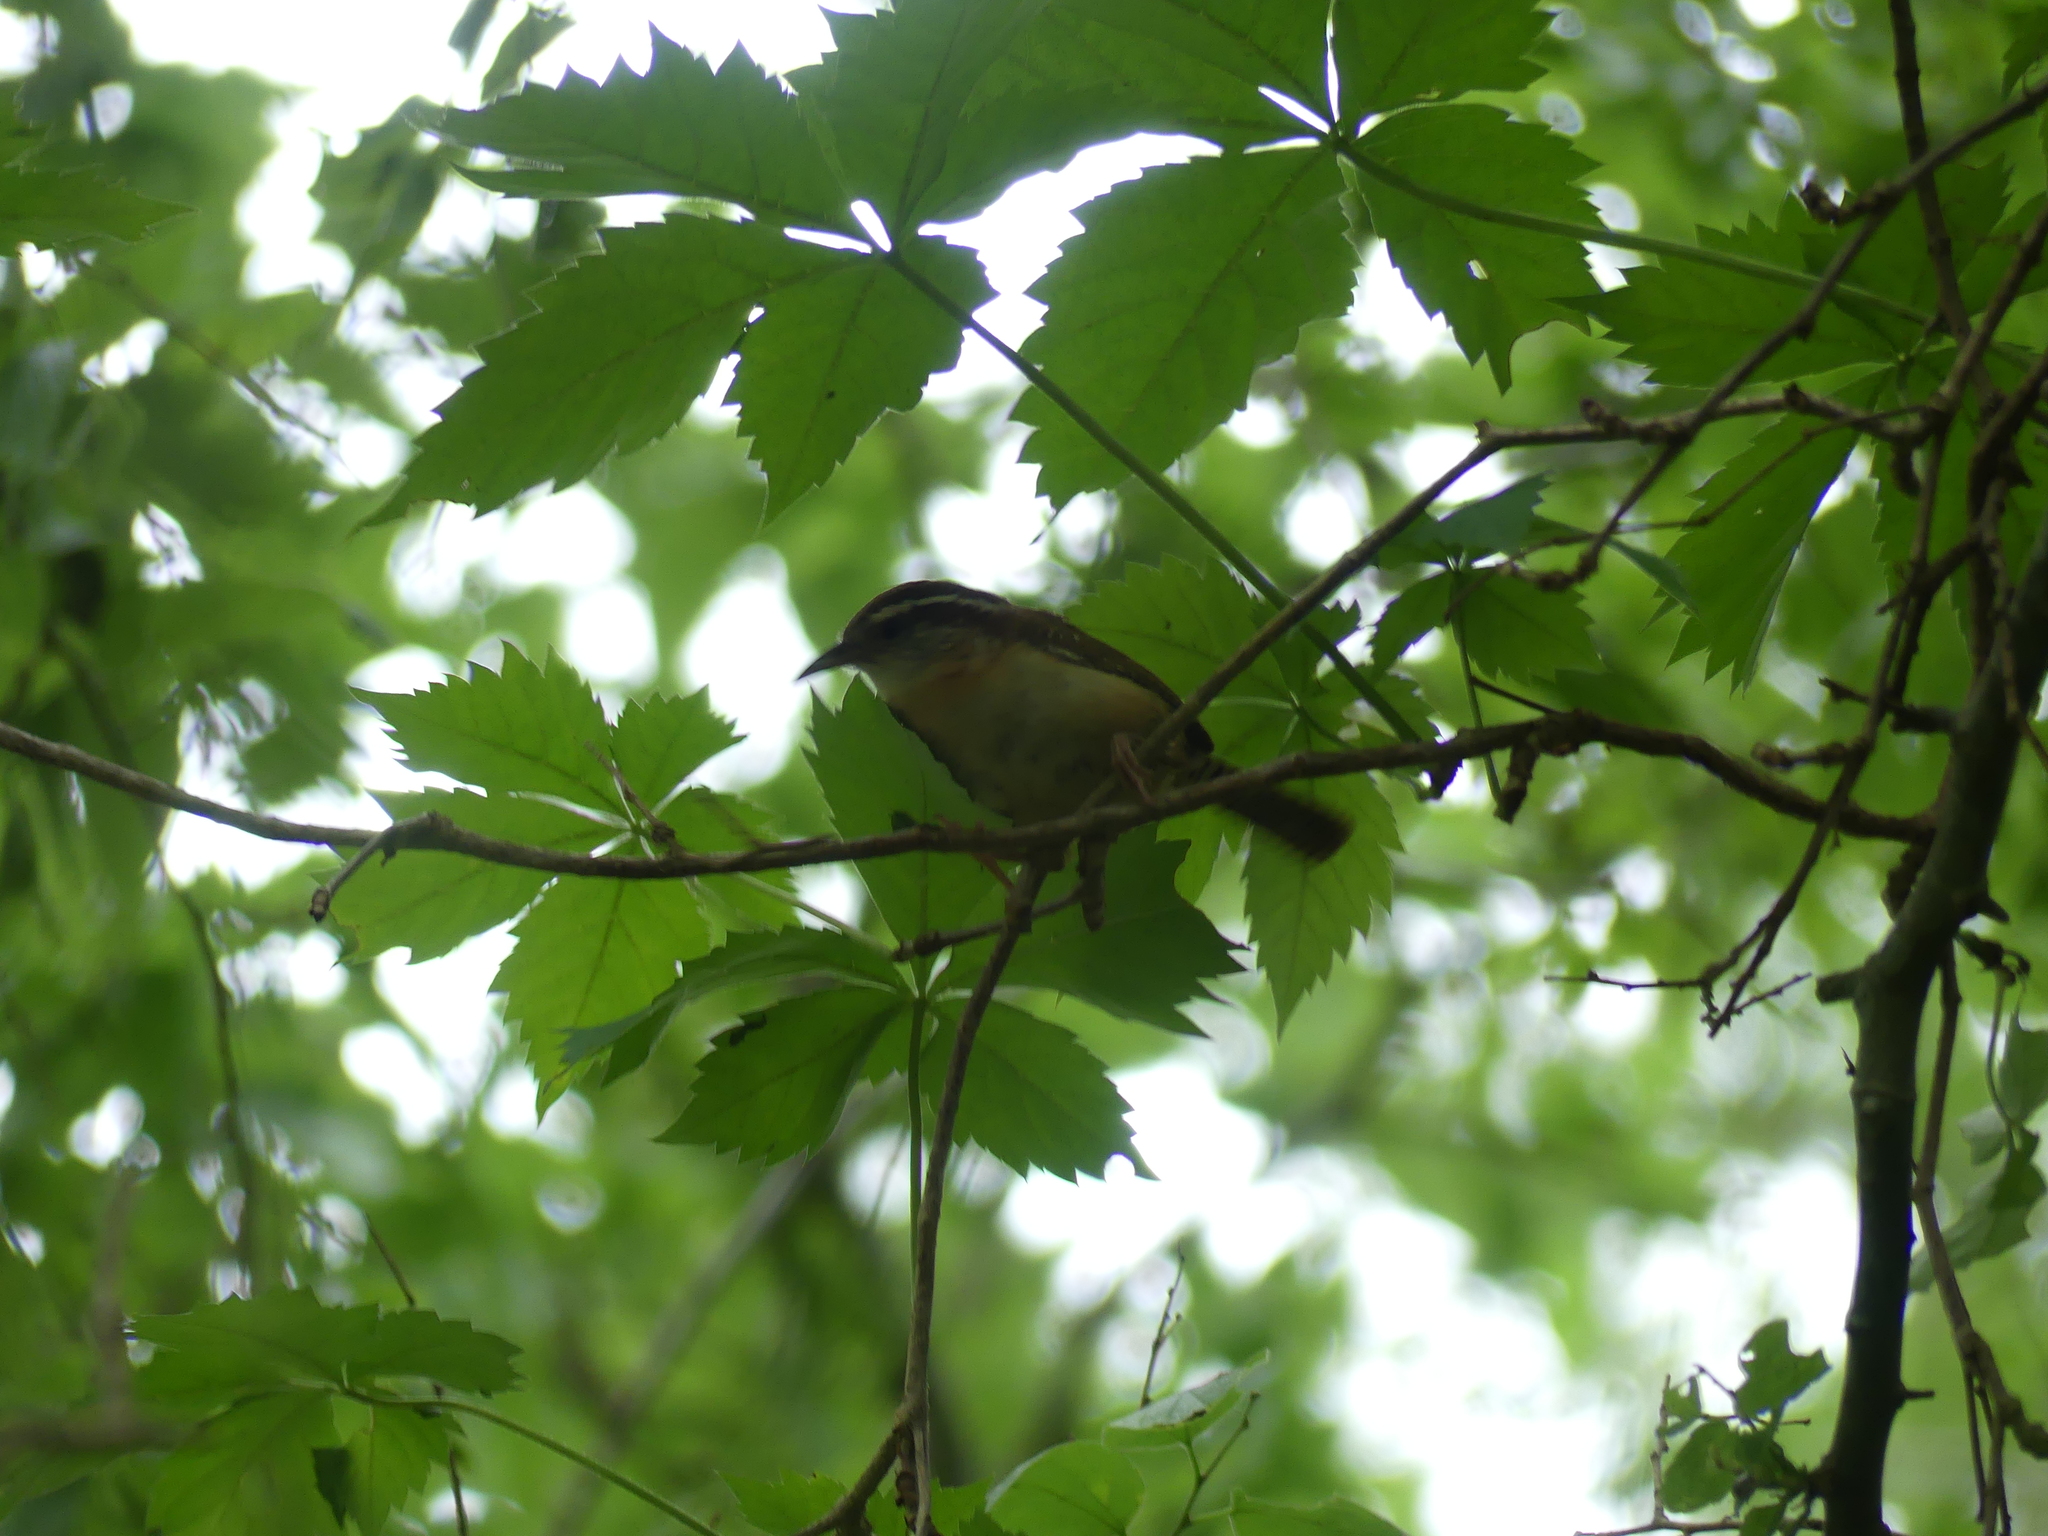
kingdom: Animalia
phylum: Chordata
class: Aves
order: Passeriformes
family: Troglodytidae
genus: Thryothorus
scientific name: Thryothorus ludovicianus
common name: Carolina wren
